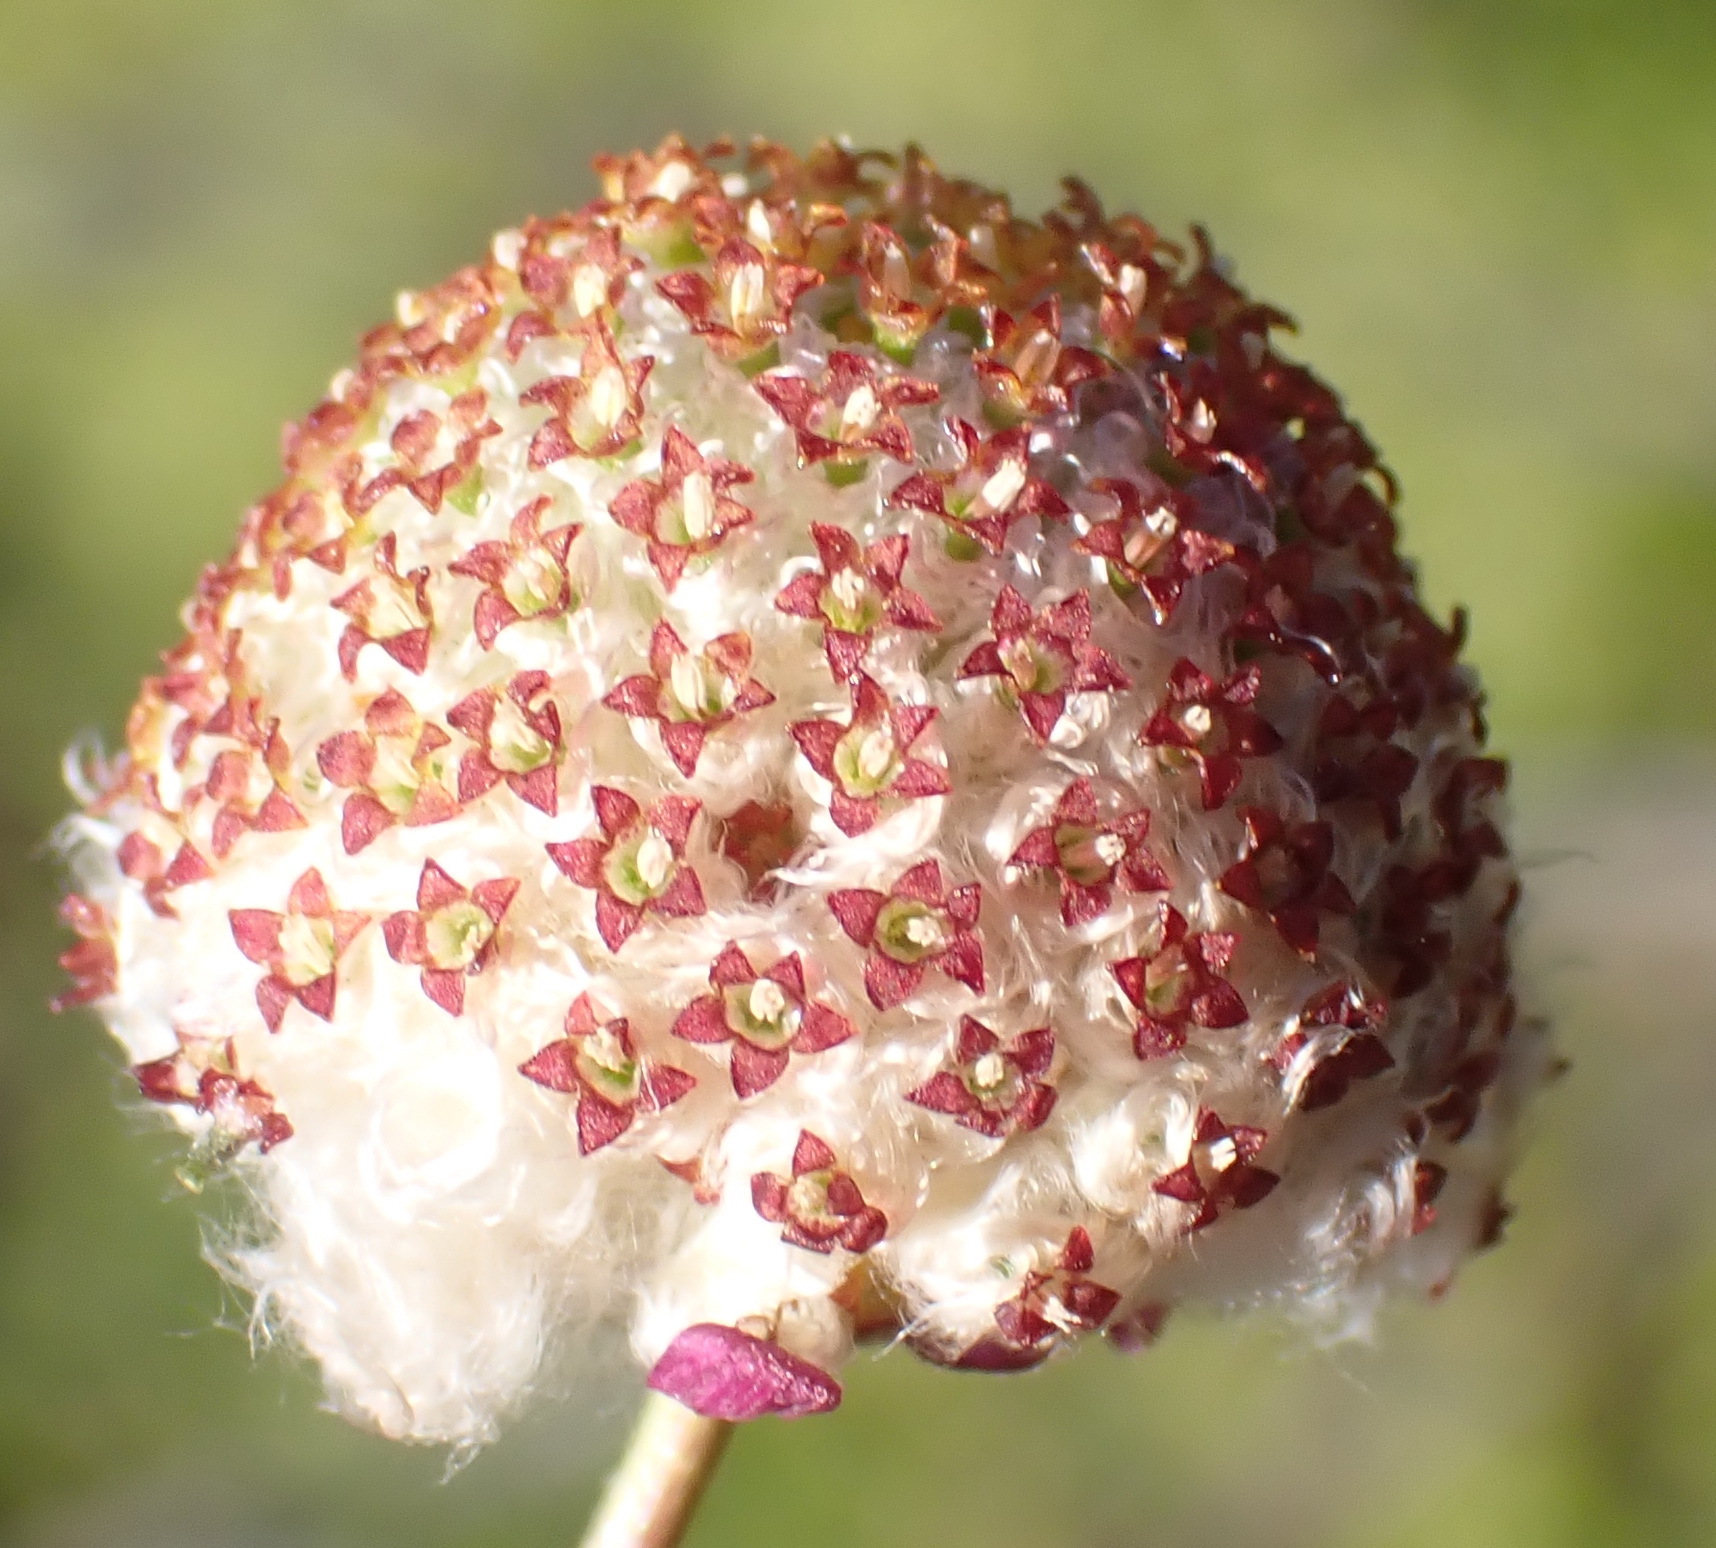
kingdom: Plantae
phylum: Tracheophyta
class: Magnoliopsida
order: Asterales
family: Asteraceae
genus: Pentzia
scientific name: Pentzia peduncularis
